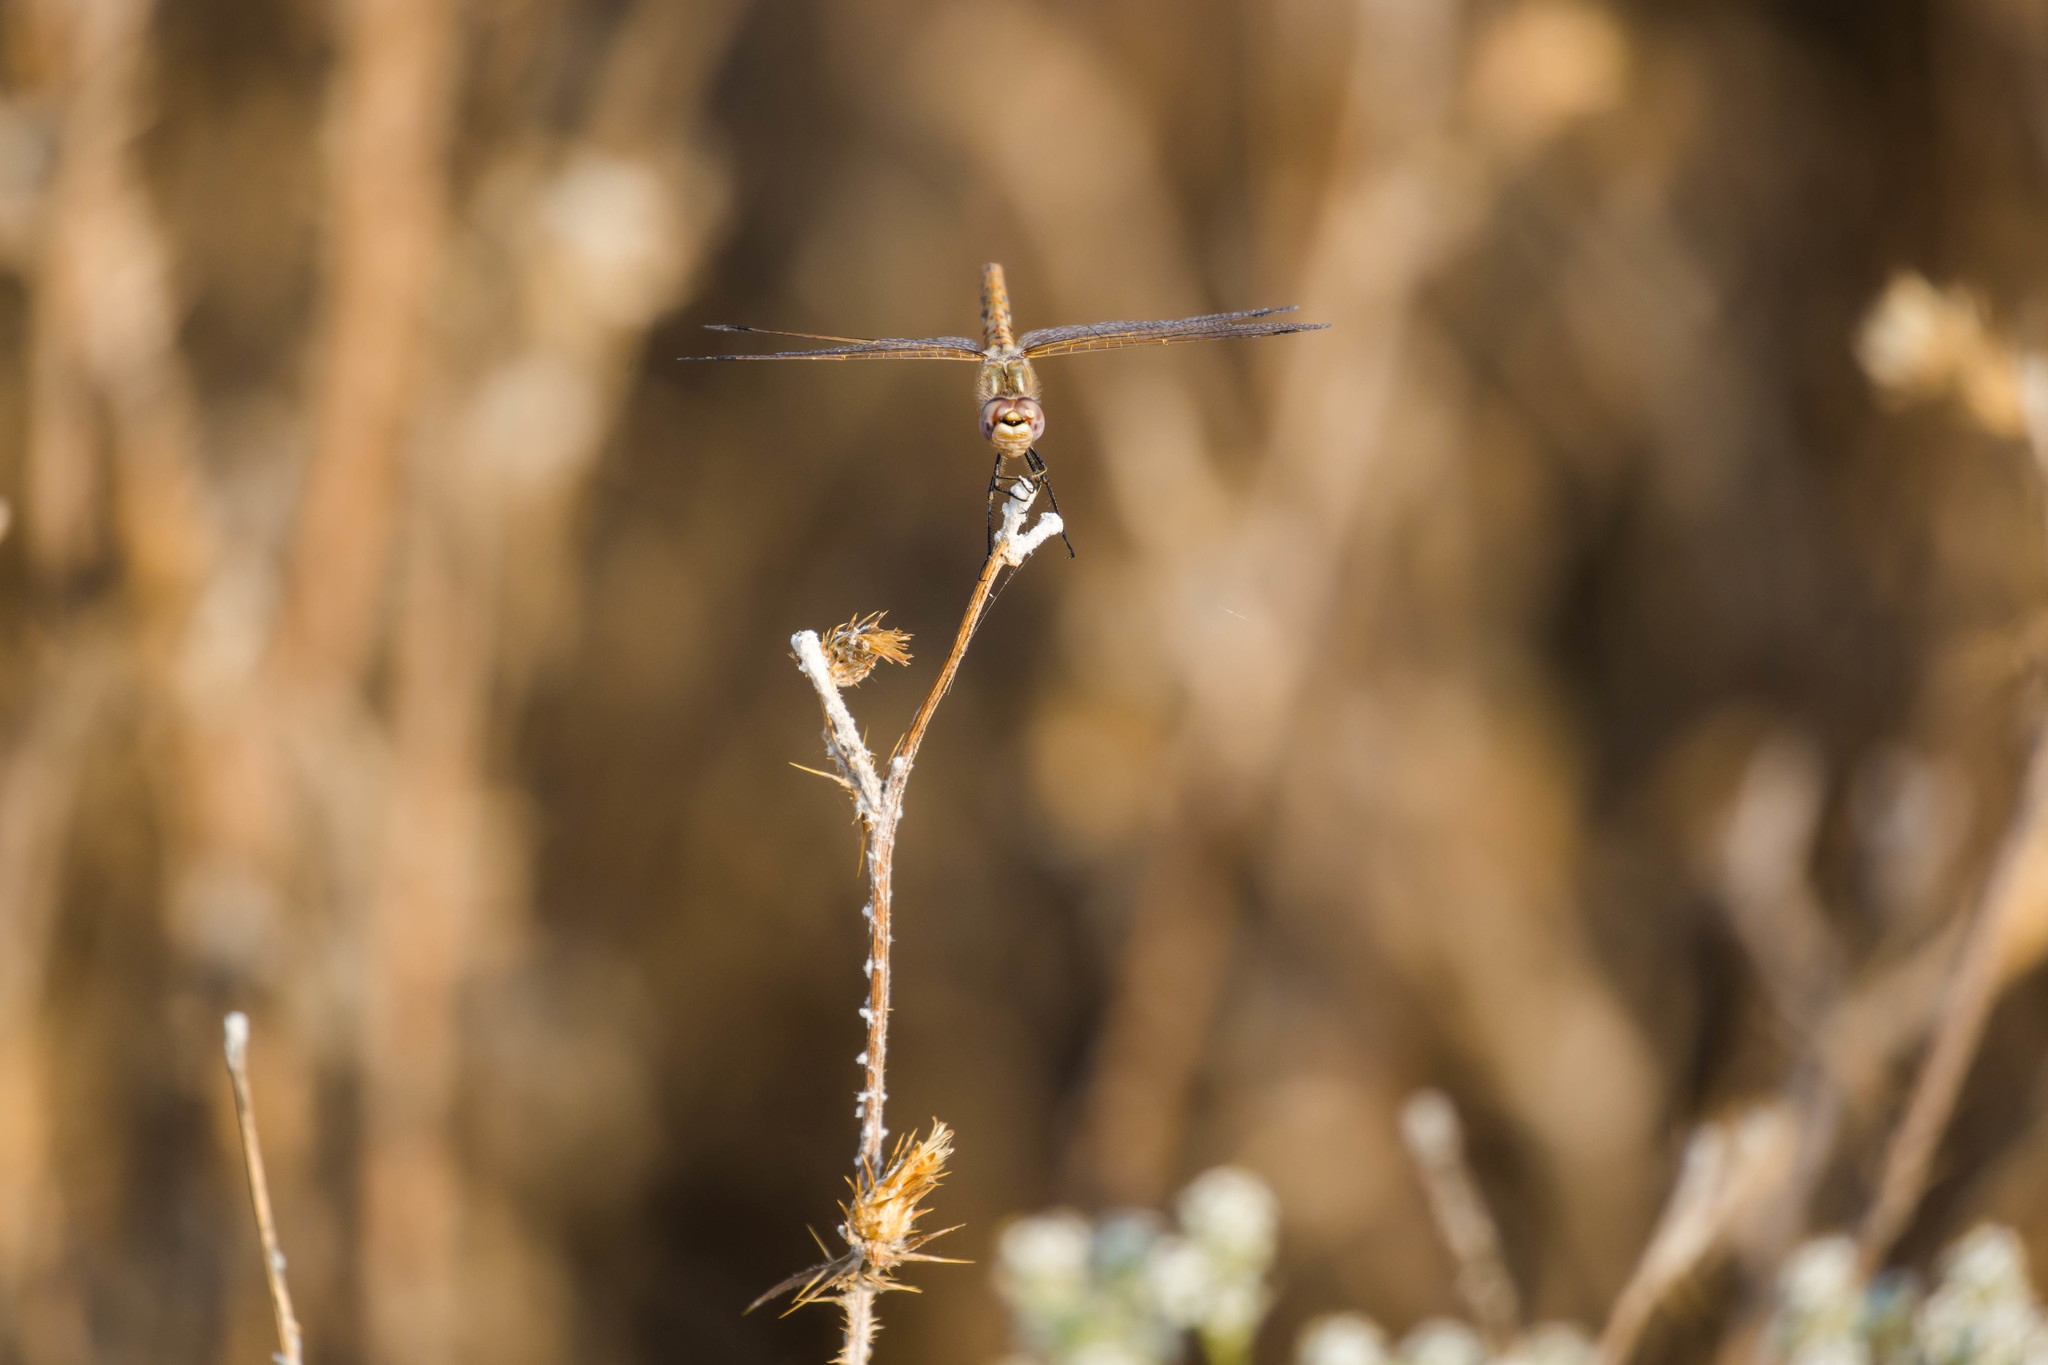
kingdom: Animalia
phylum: Arthropoda
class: Insecta
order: Odonata
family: Libellulidae
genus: Sympetrum
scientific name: Sympetrum corruptum
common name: Variegated meadowhawk
